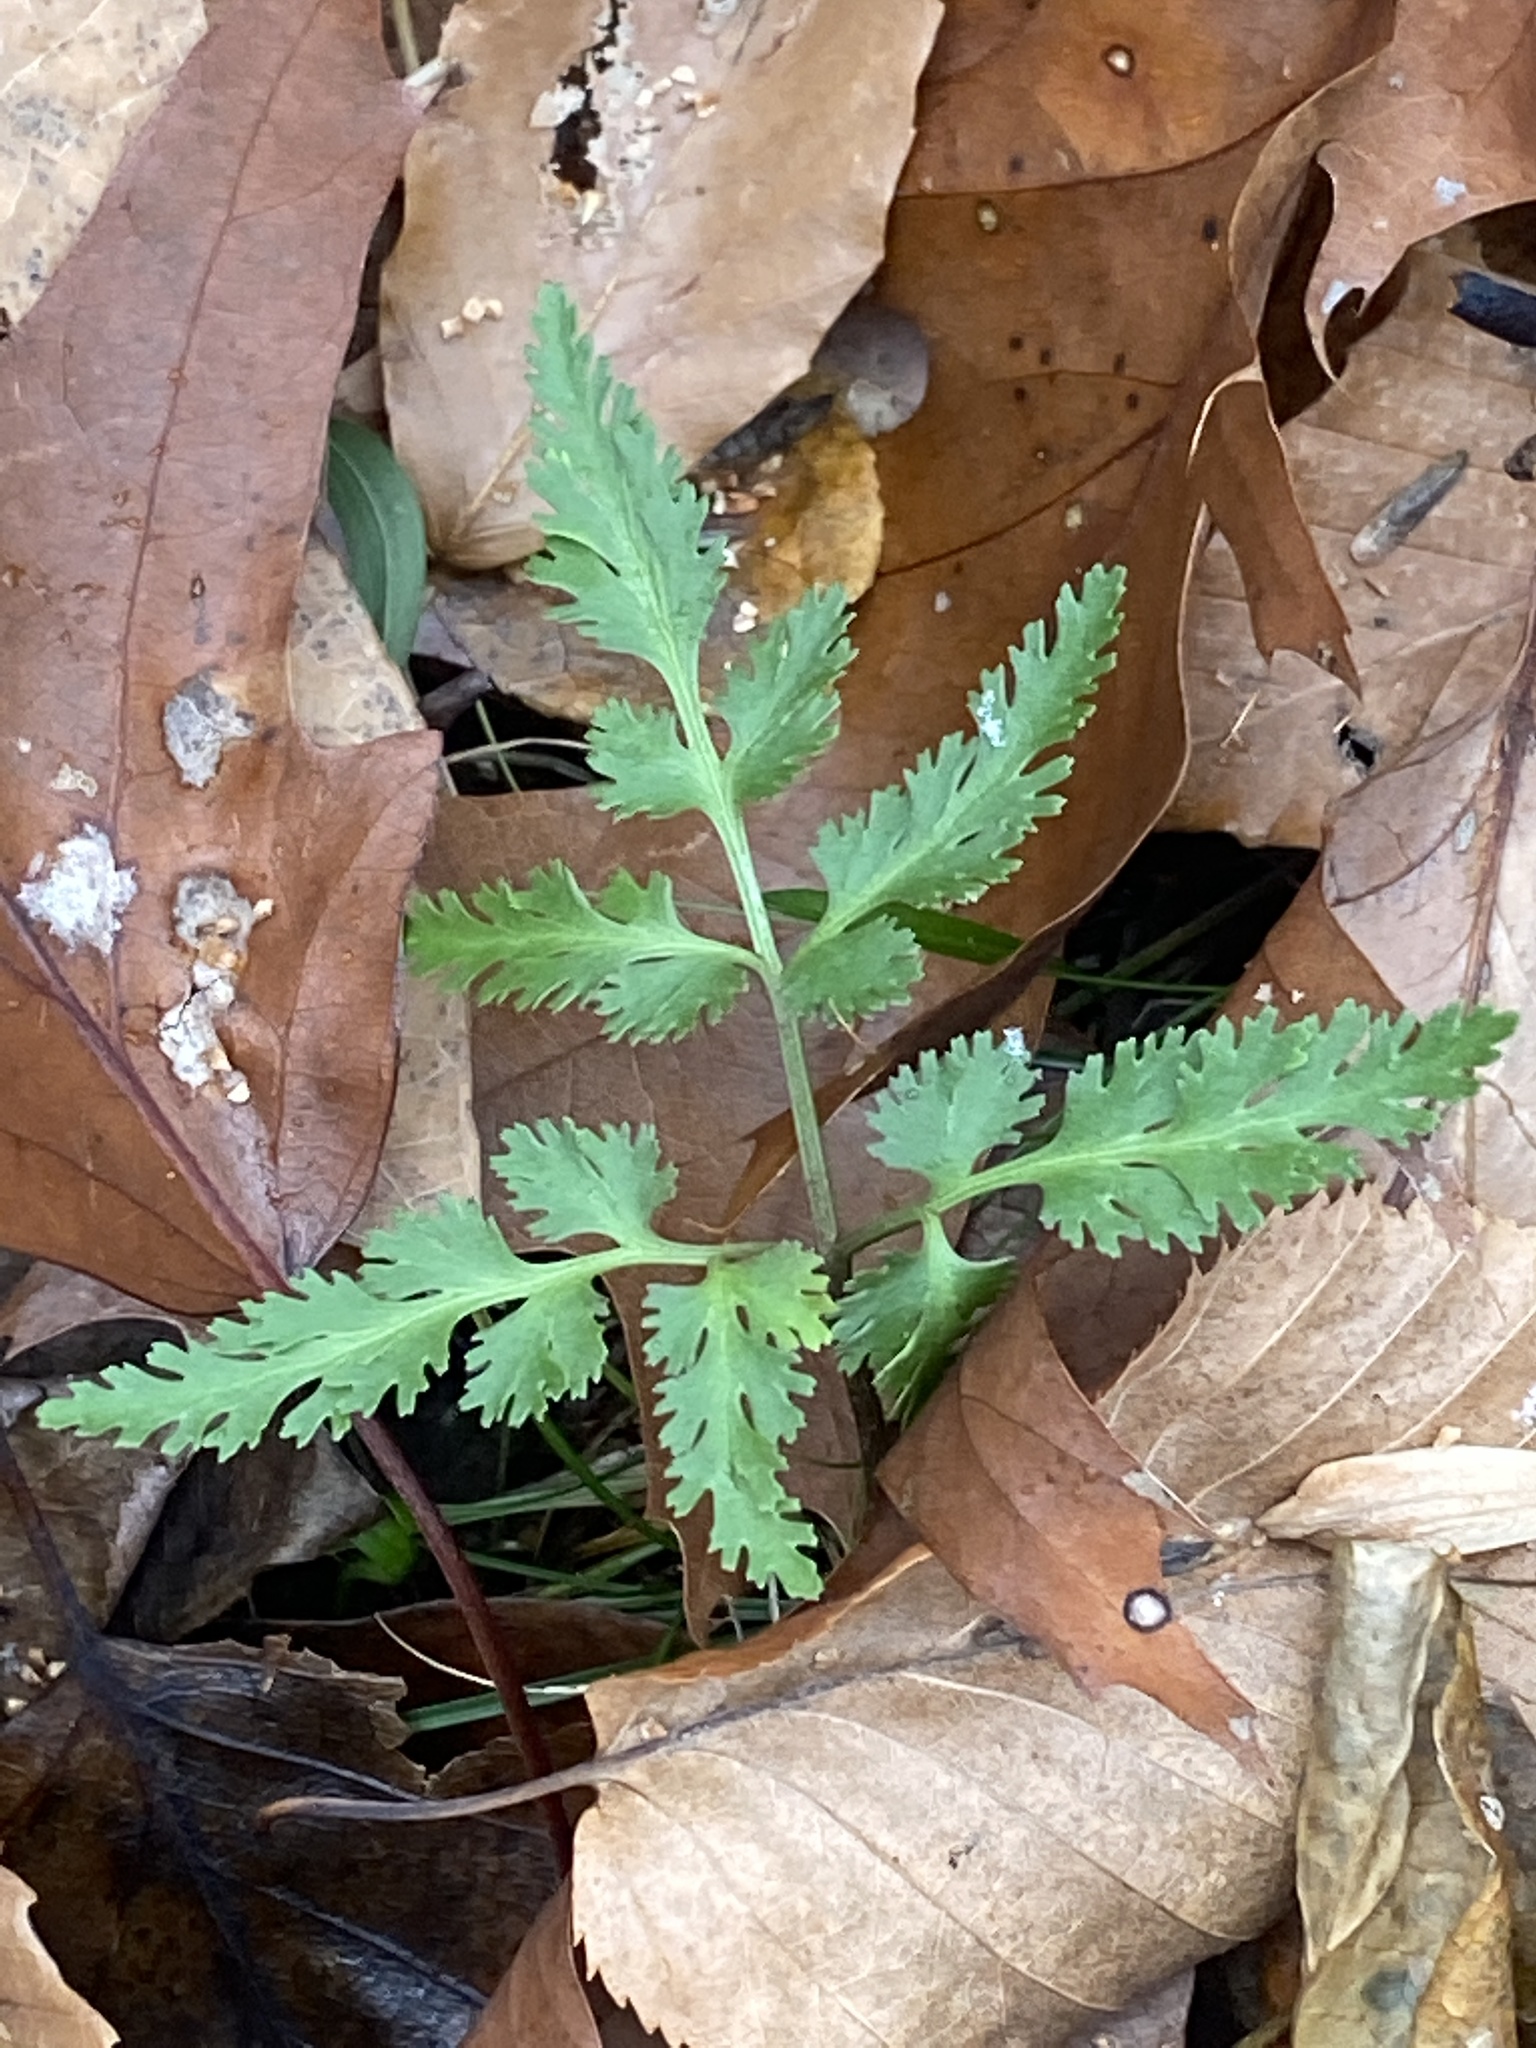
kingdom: Plantae
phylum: Tracheophyta
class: Polypodiopsida
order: Ophioglossales
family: Ophioglossaceae
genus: Sceptridium
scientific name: Sceptridium dissectum
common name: Cut-leaved grapefern
